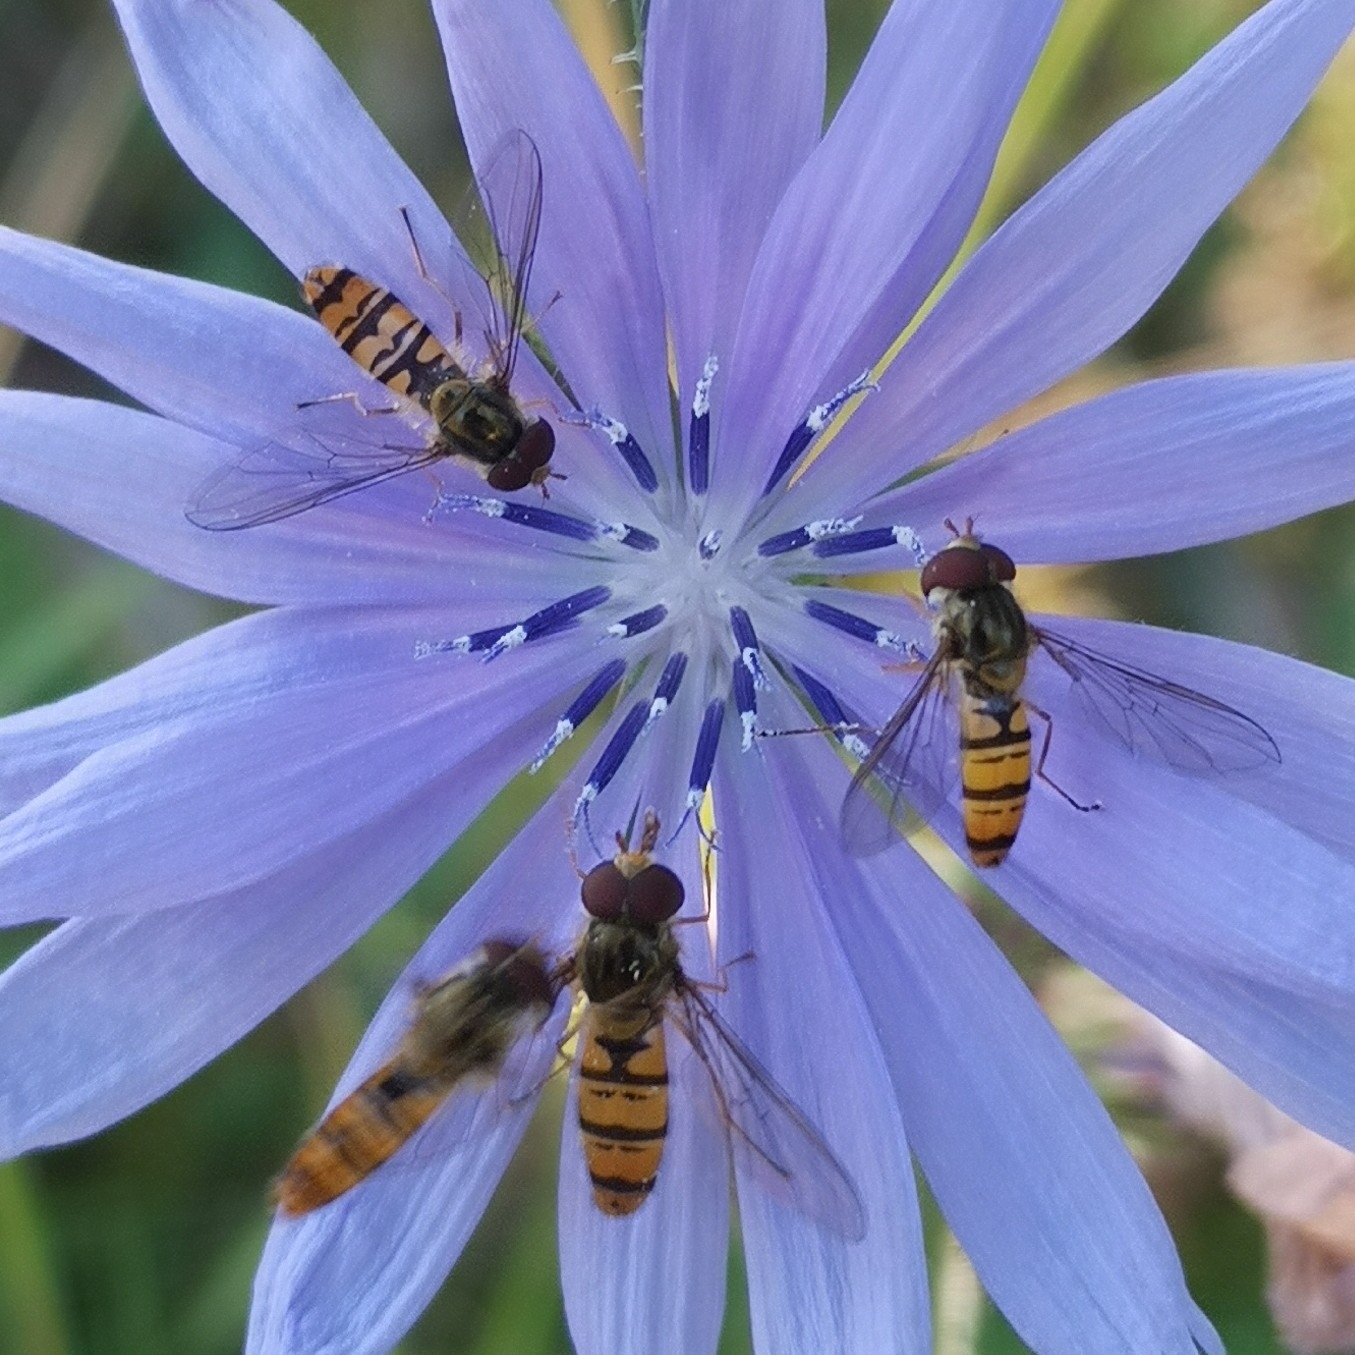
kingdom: Animalia
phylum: Arthropoda
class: Insecta
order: Diptera
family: Syrphidae
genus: Episyrphus
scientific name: Episyrphus balteatus
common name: Marmalade hoverfly
